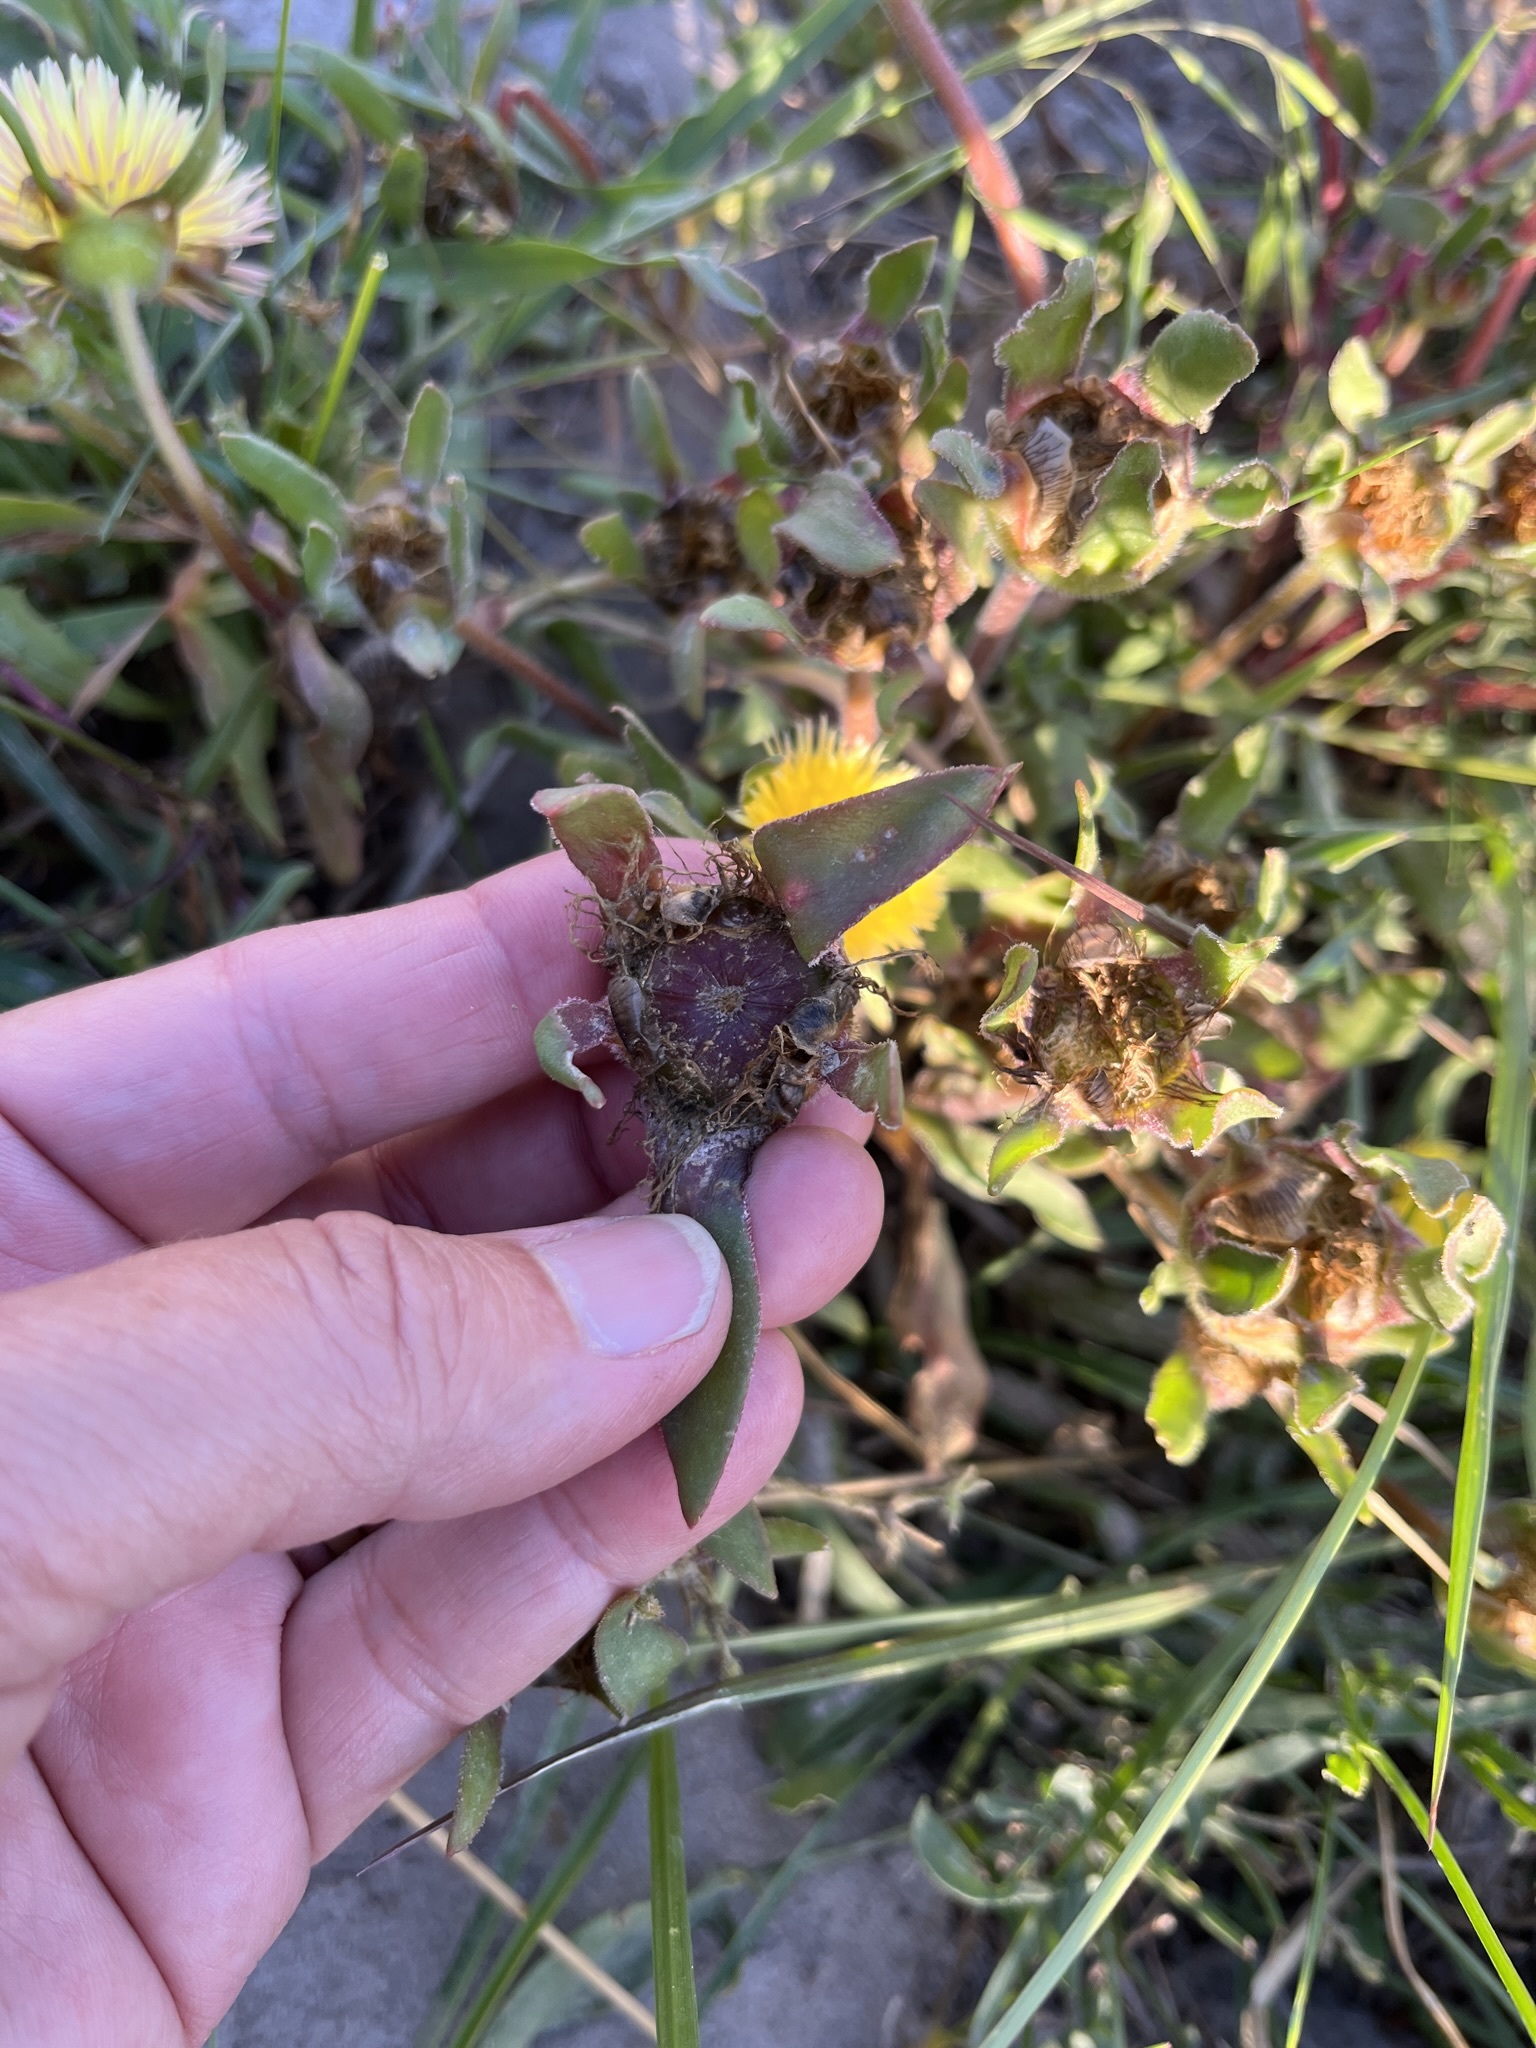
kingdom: Plantae
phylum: Tracheophyta
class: Magnoliopsida
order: Caryophyllales
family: Aizoaceae
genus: Carpanthea
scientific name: Carpanthea pomeridiana
